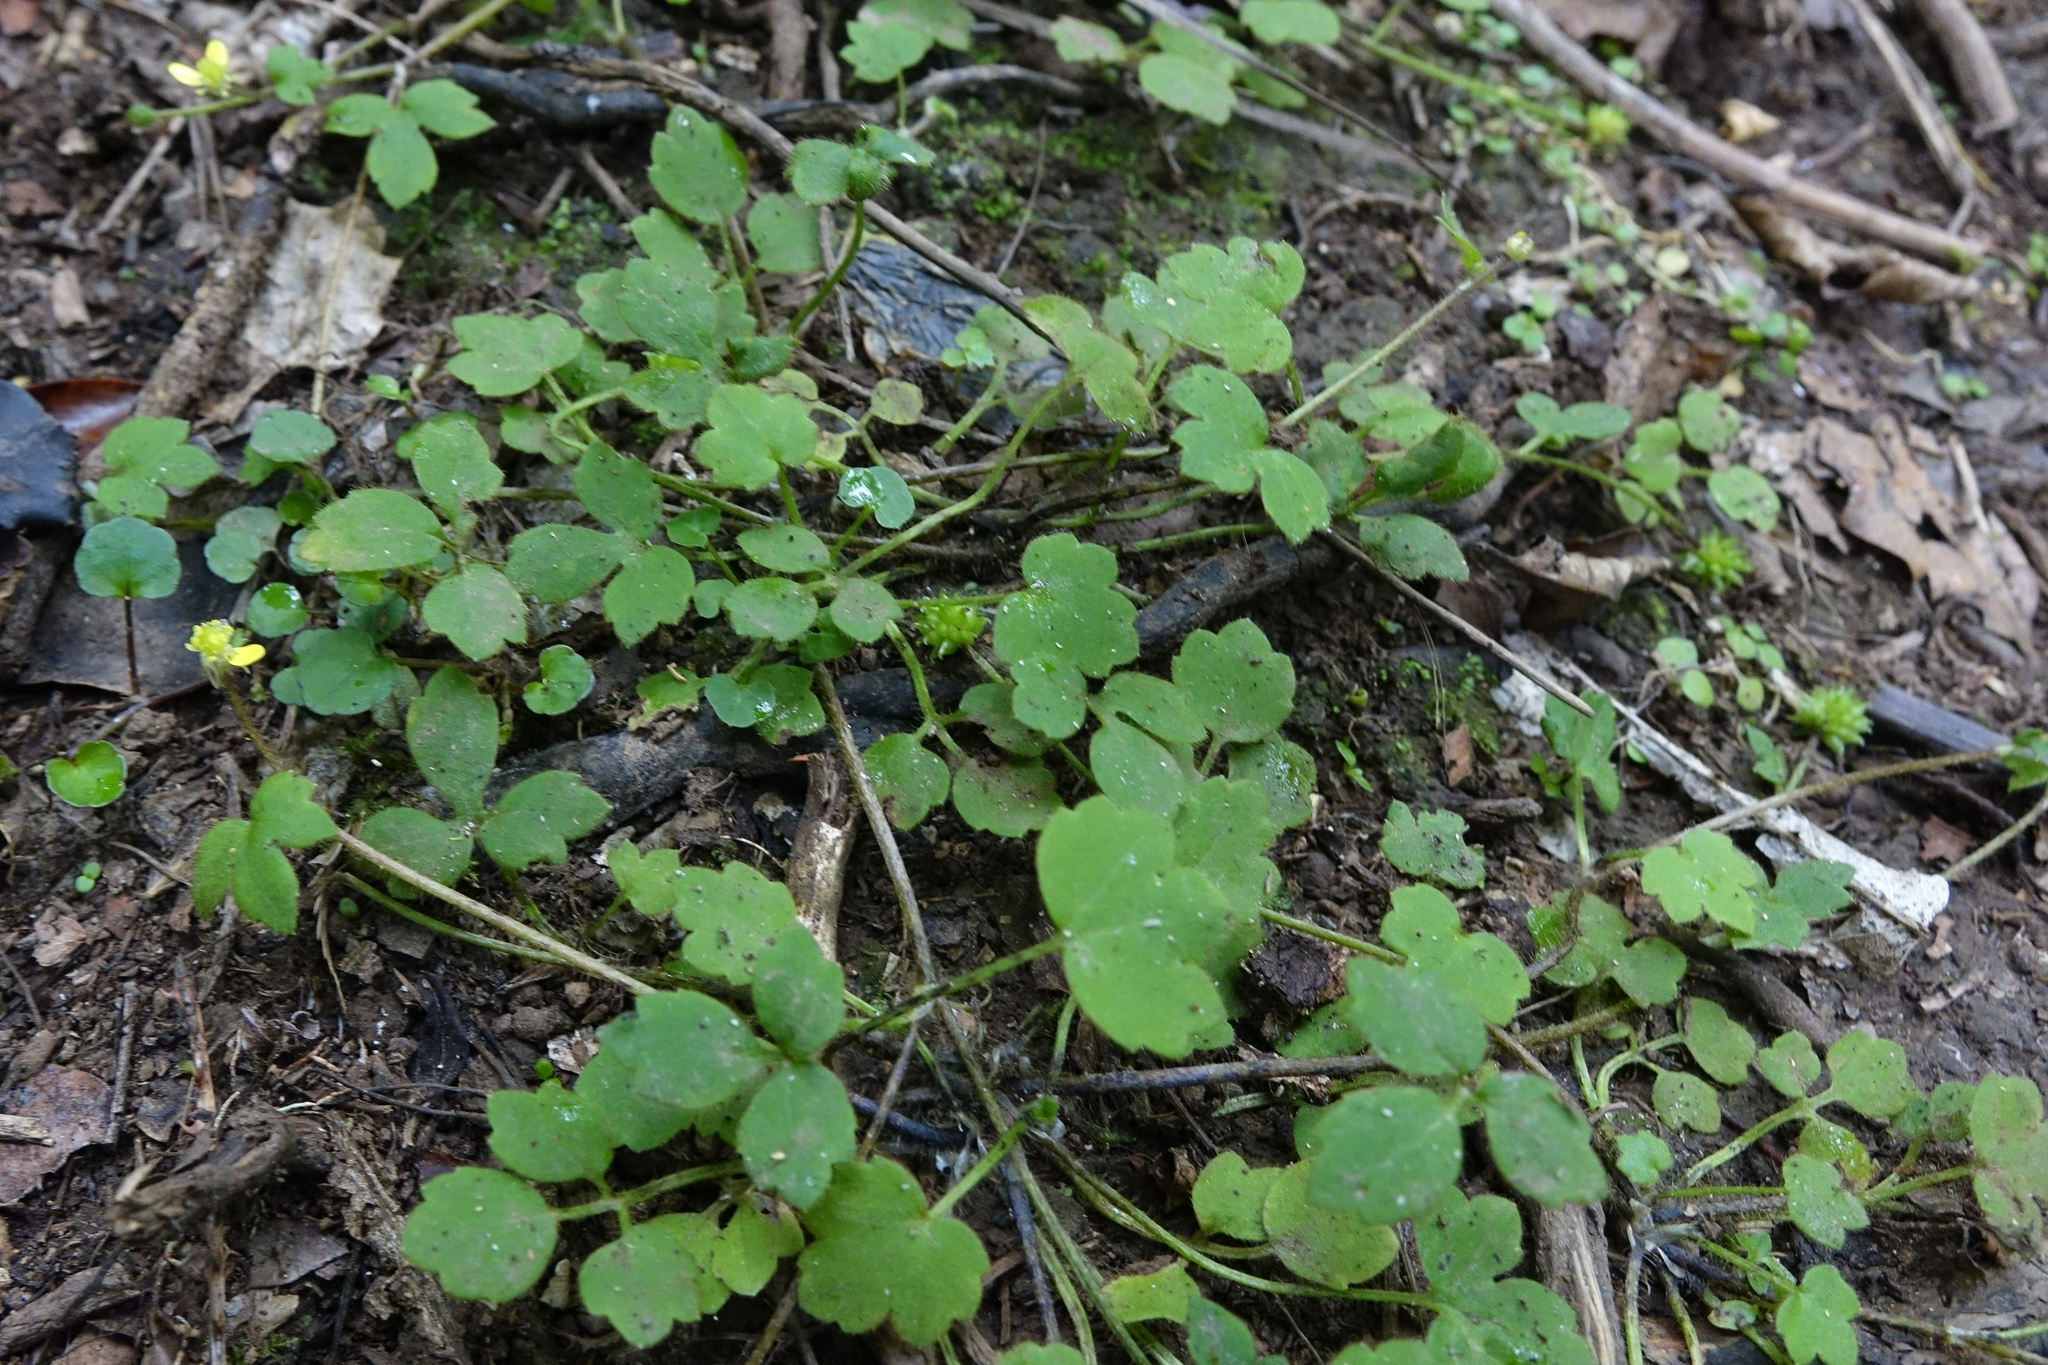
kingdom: Plantae
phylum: Tracheophyta
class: Magnoliopsida
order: Ranunculales
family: Ranunculaceae
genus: Ranunculus
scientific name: Ranunculus reflexus
